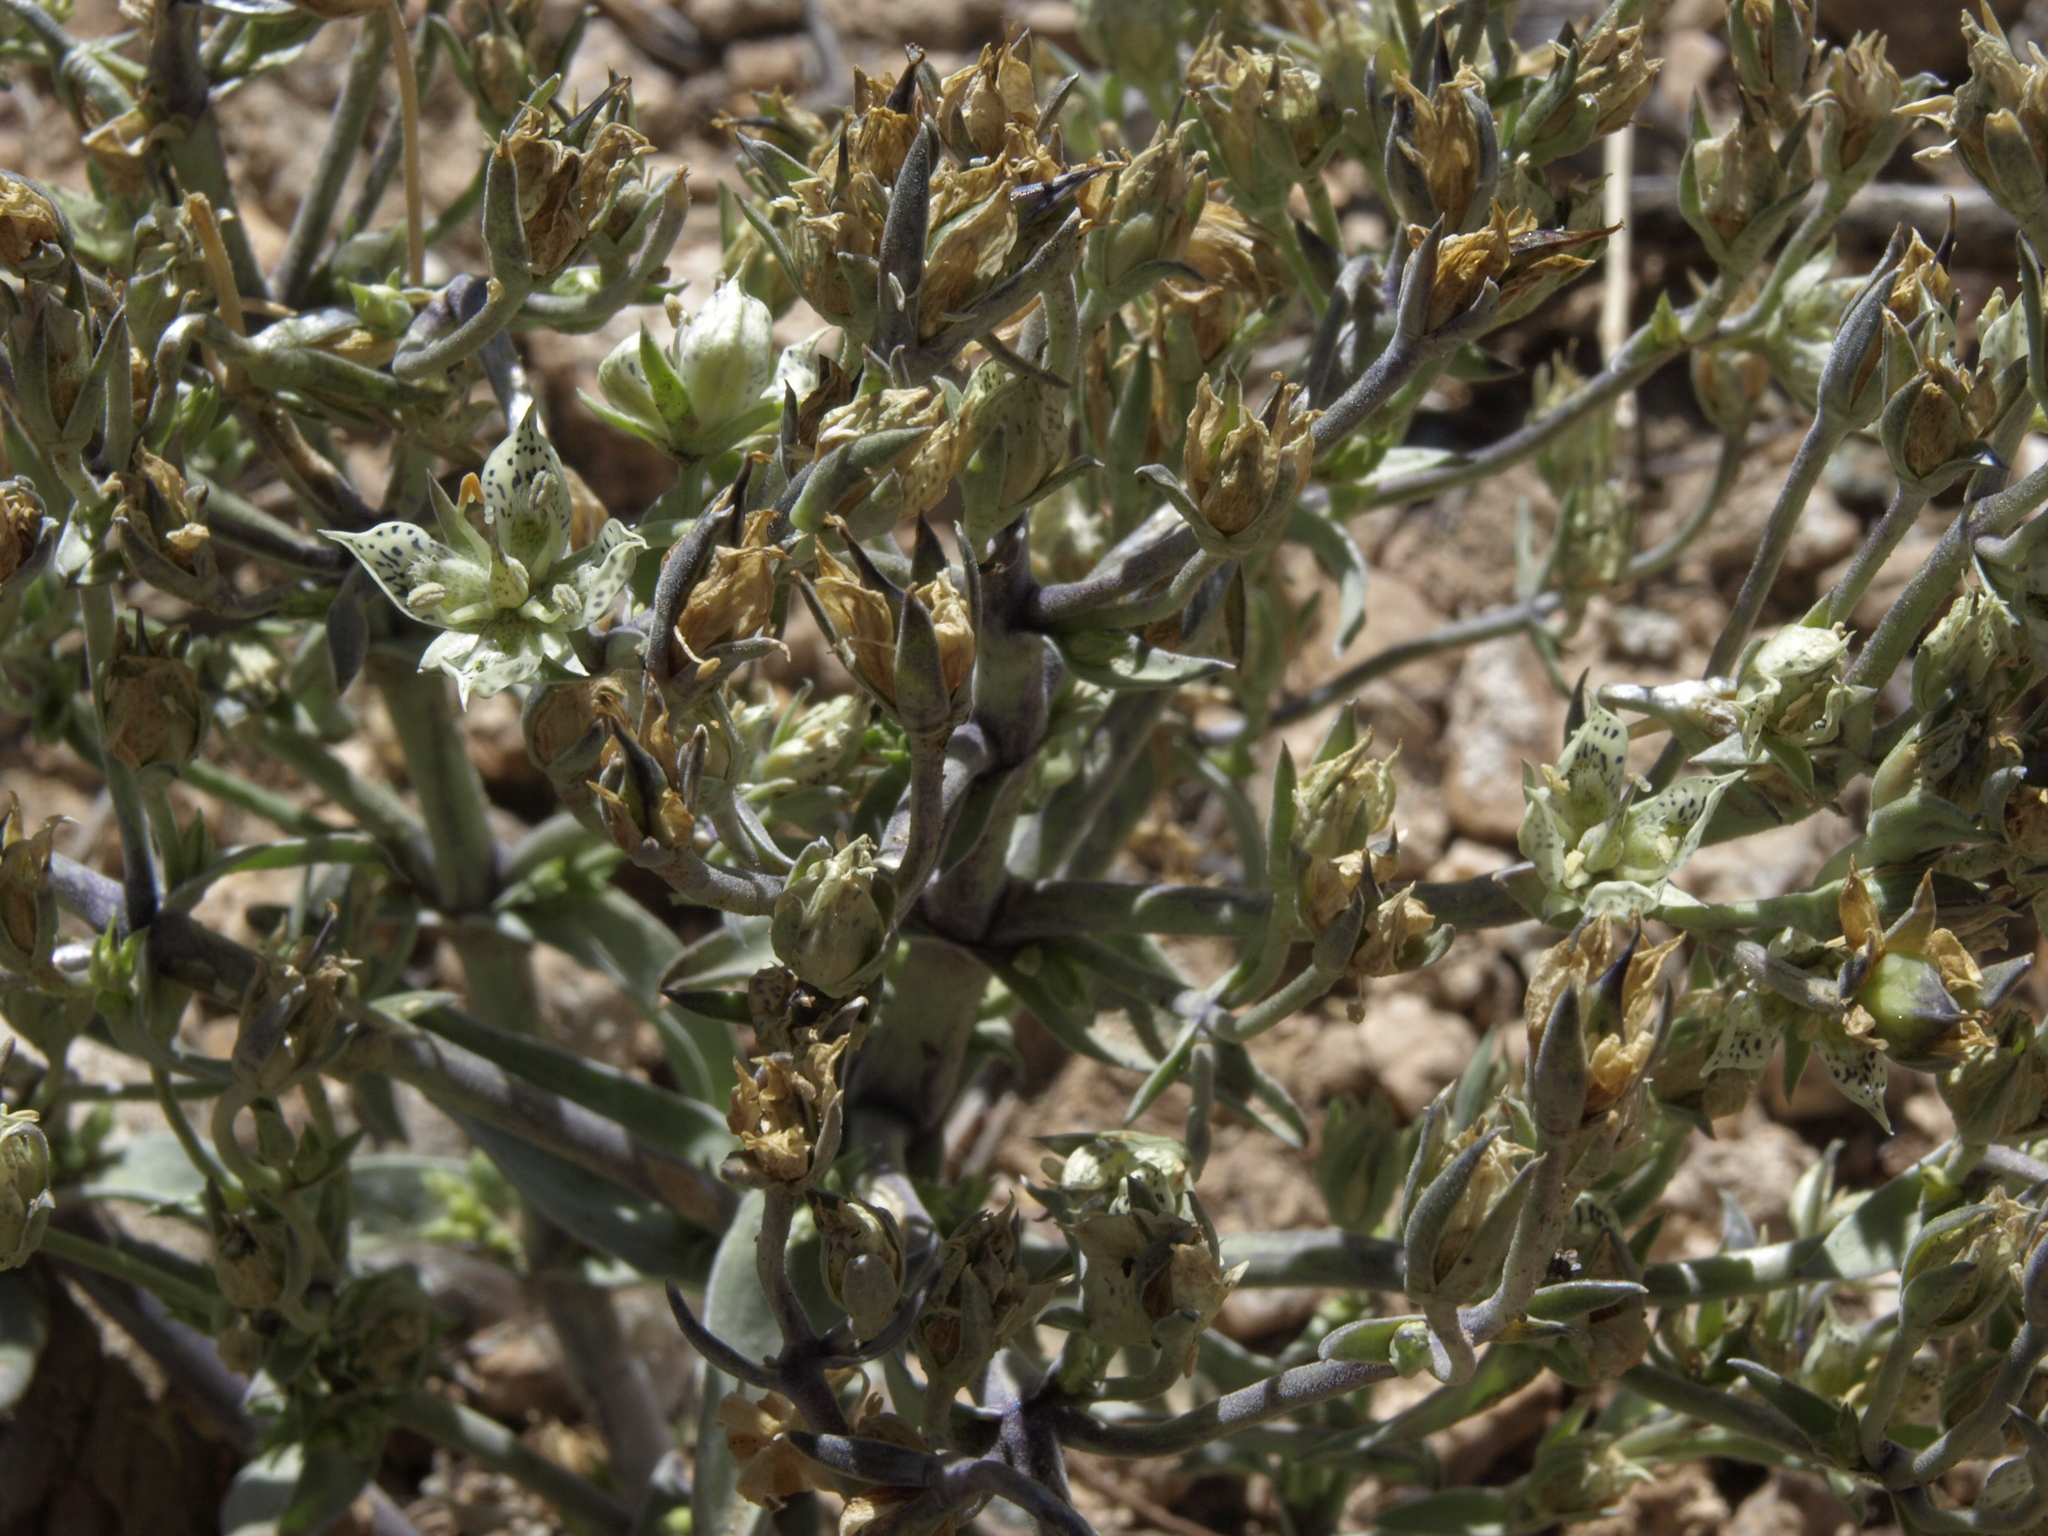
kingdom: Plantae
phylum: Tracheophyta
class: Magnoliopsida
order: Gentianales
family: Gentianaceae
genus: Frasera
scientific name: Frasera puberulenta
